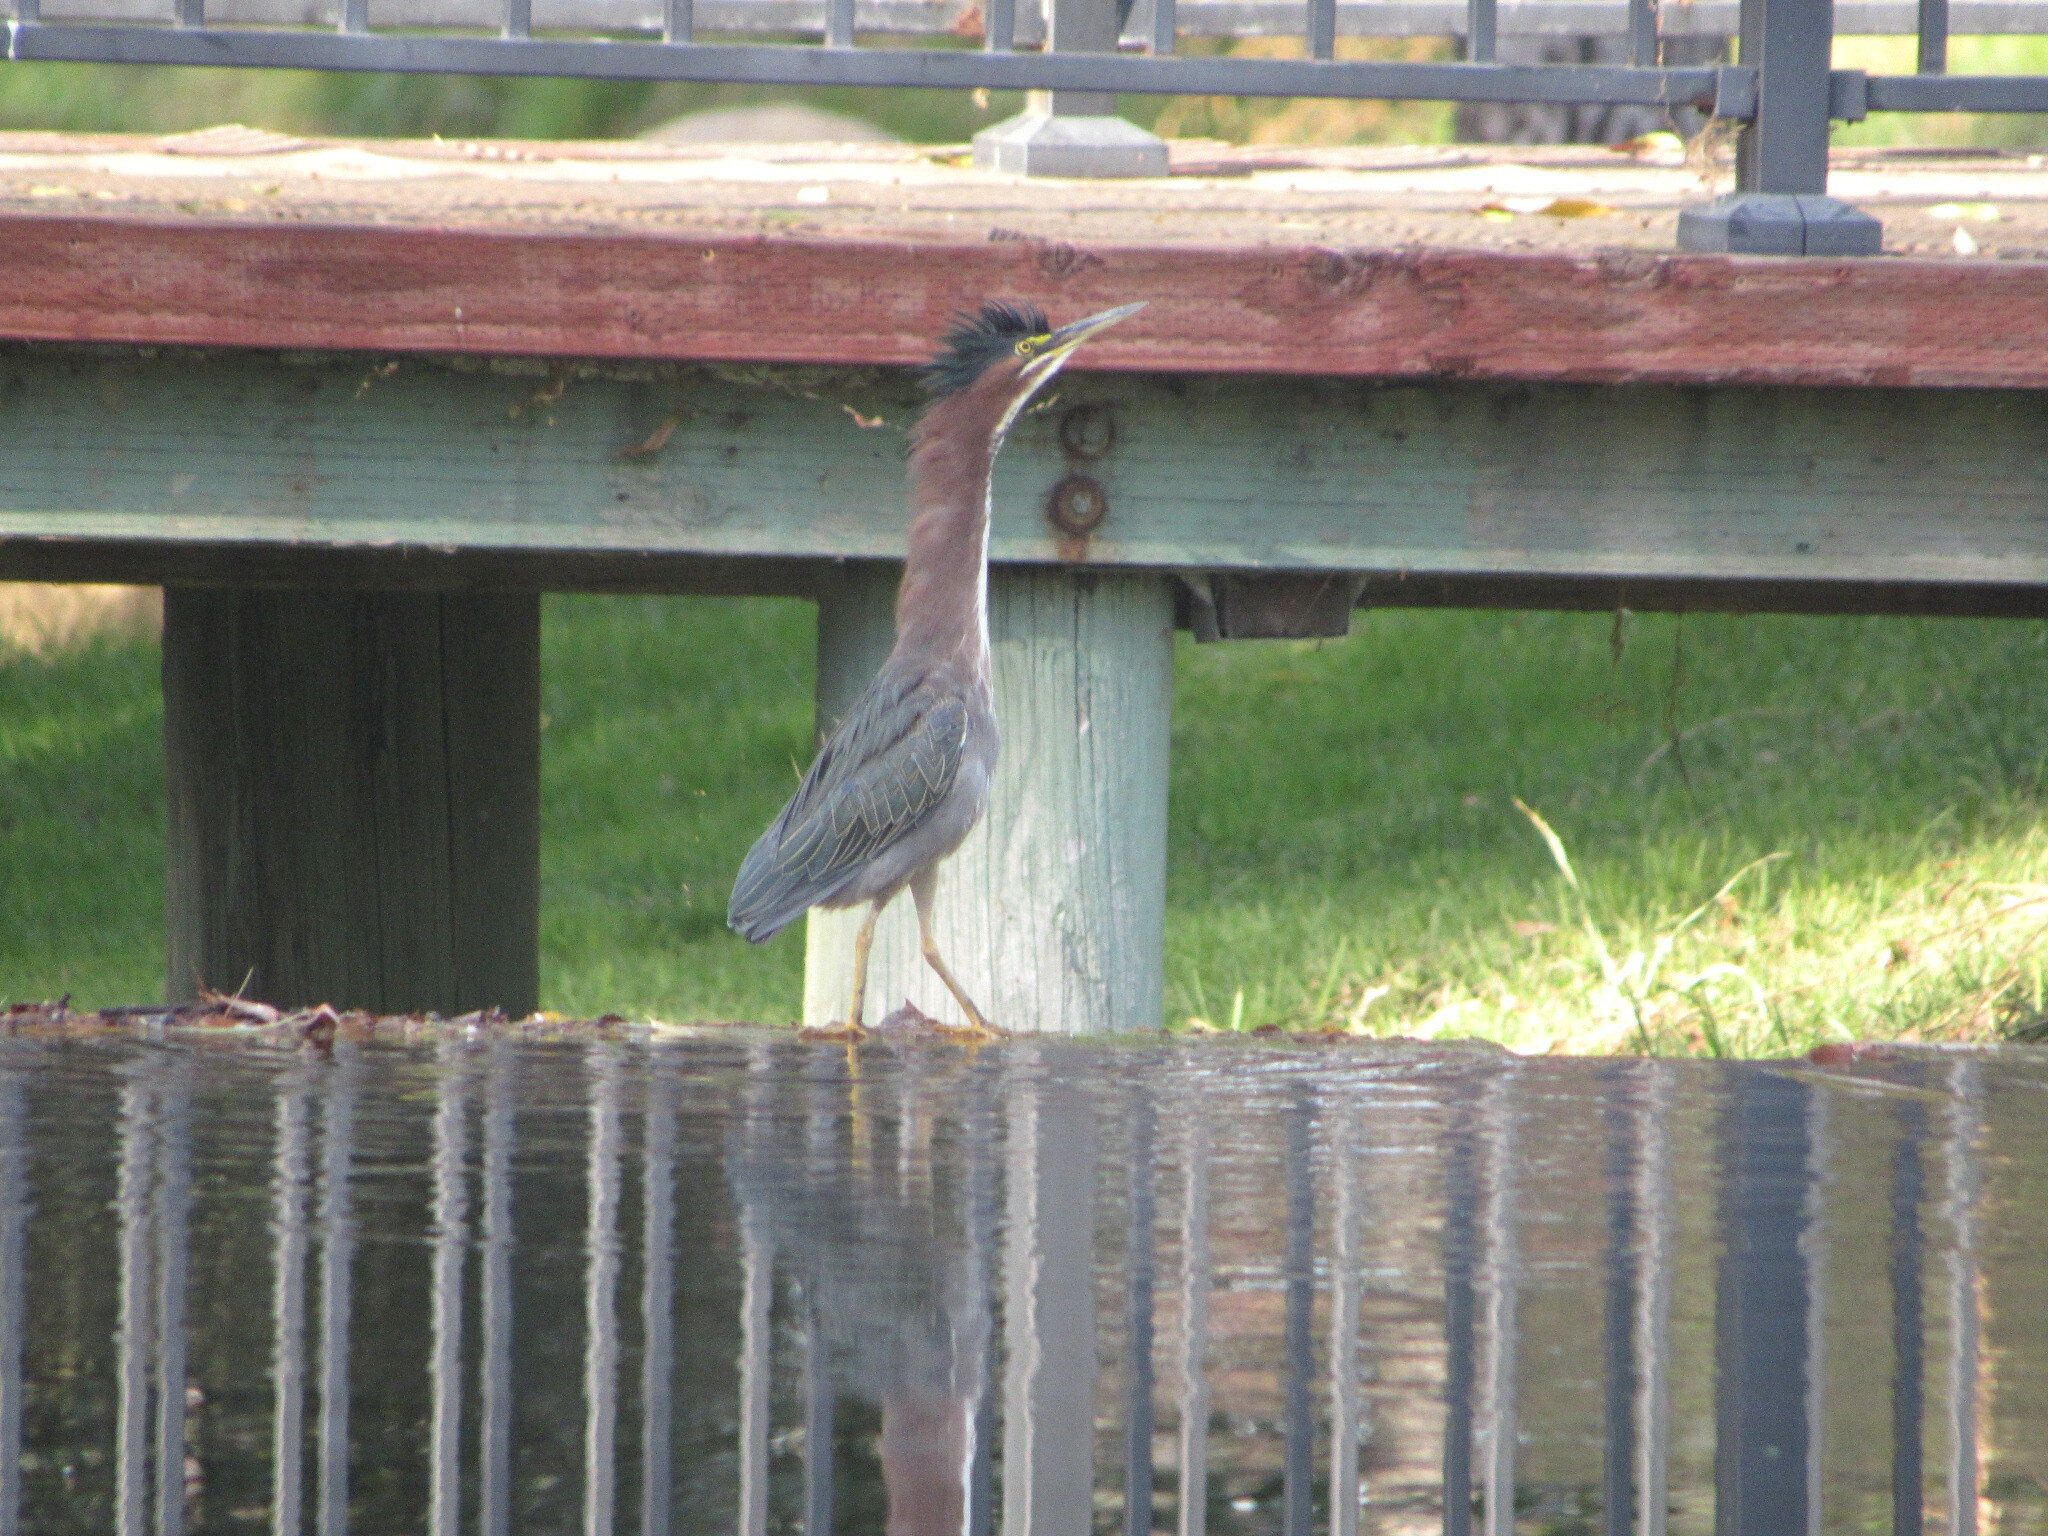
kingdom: Animalia
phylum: Chordata
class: Aves
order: Pelecaniformes
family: Ardeidae
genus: Butorides
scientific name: Butorides virescens
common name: Green heron
